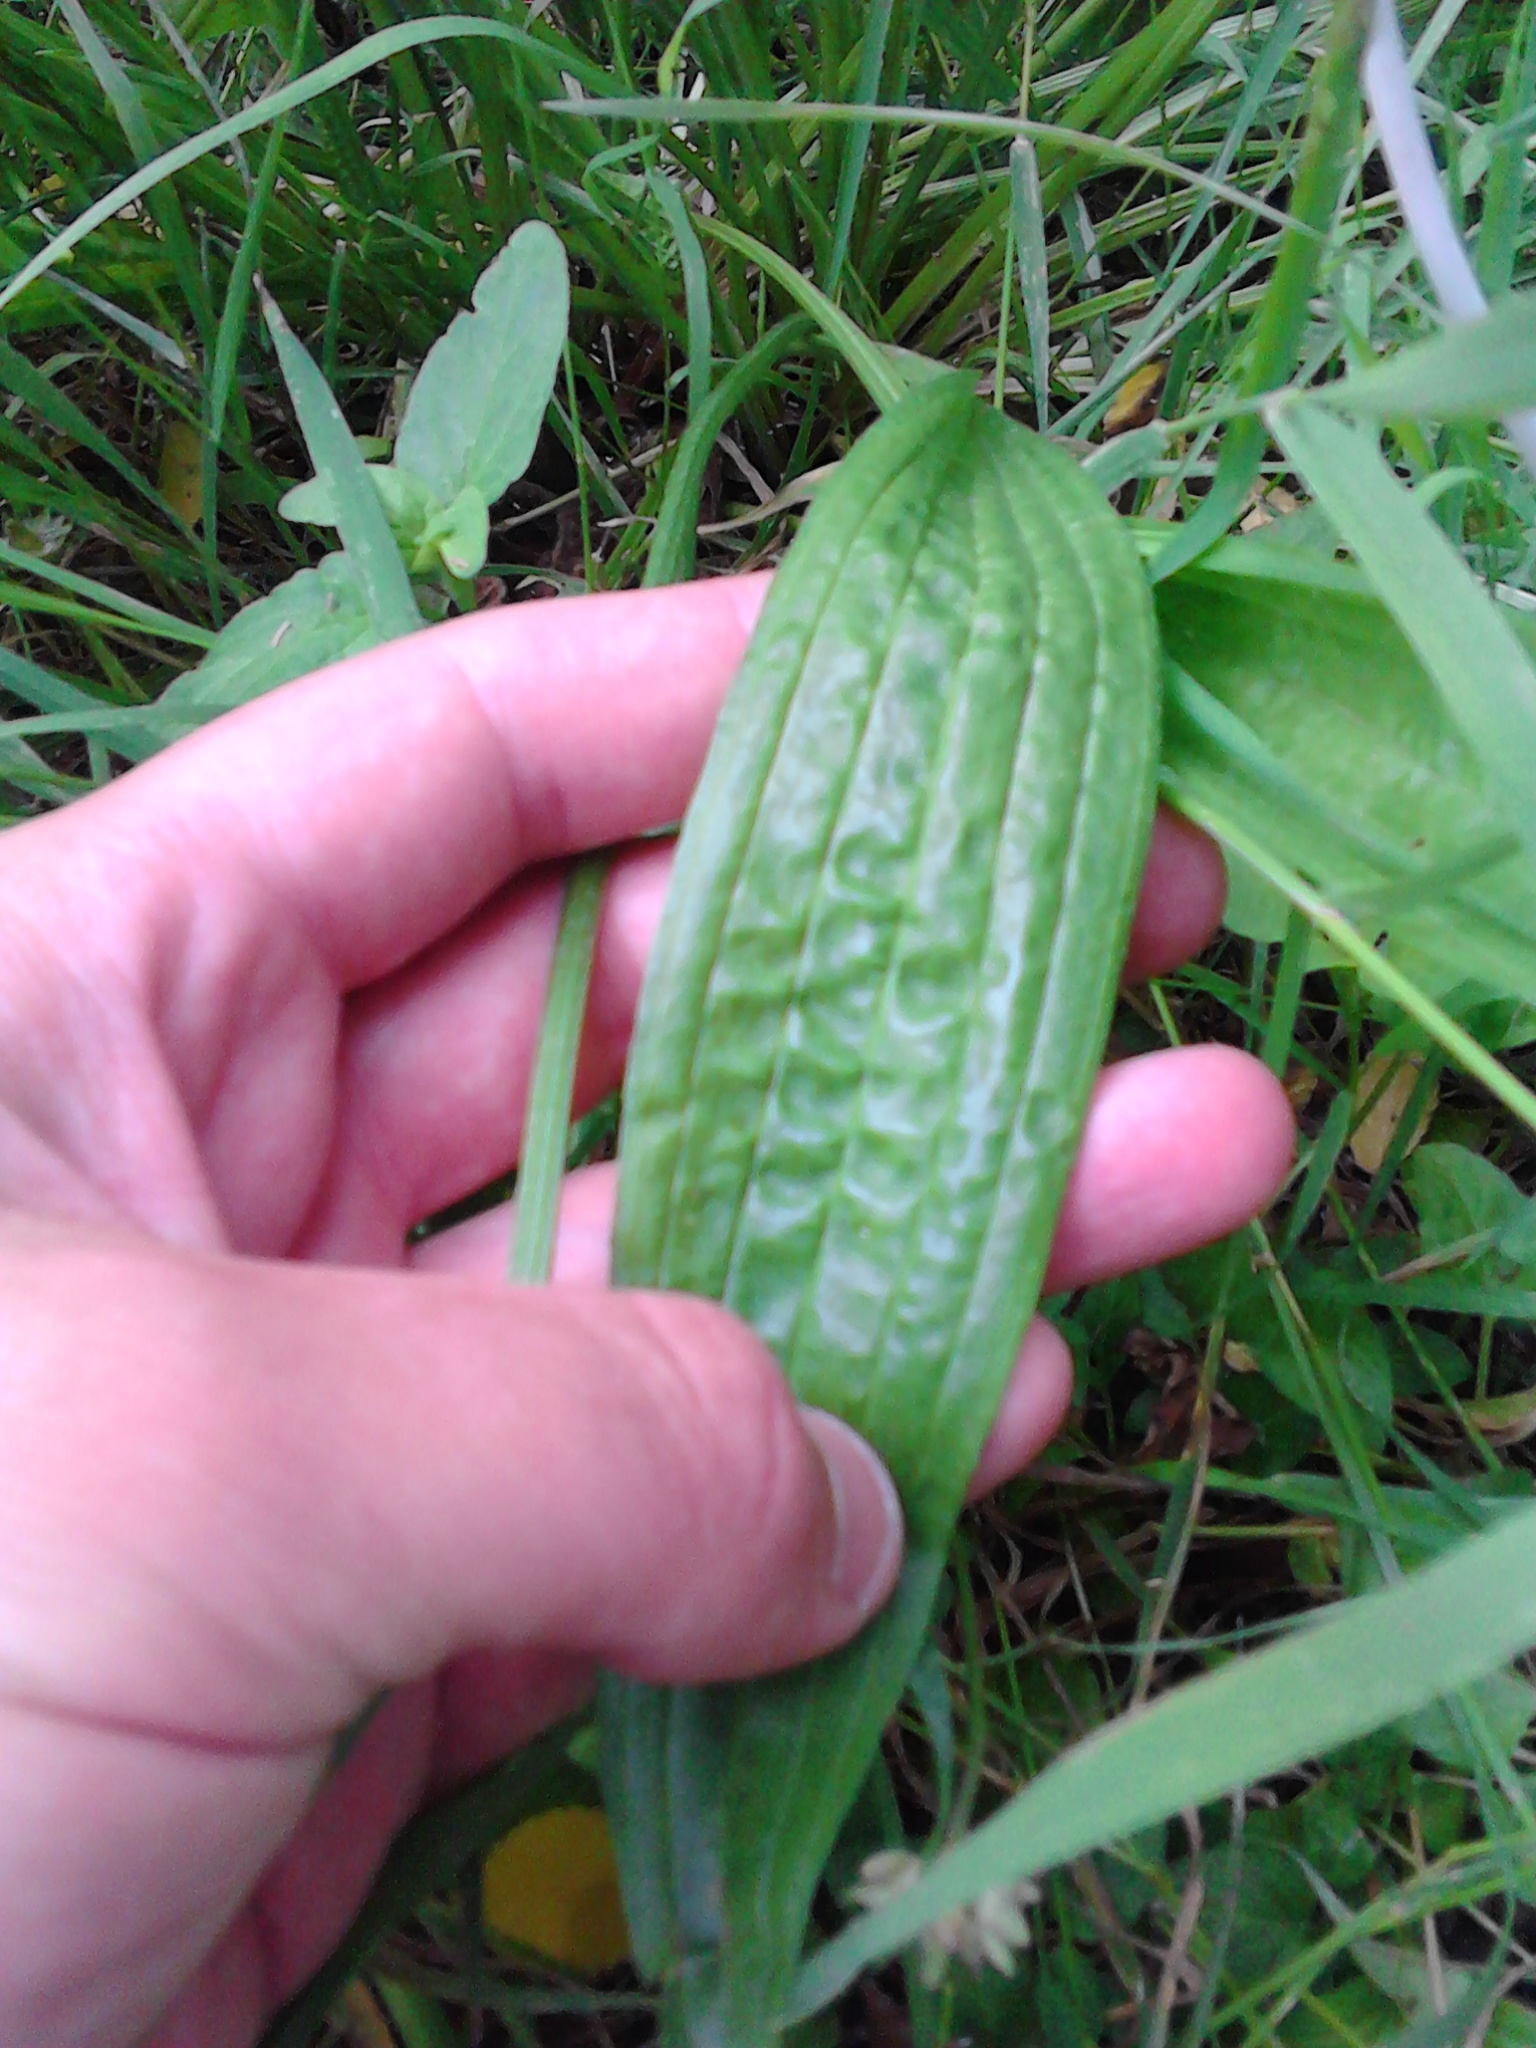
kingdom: Plantae
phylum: Tracheophyta
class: Magnoliopsida
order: Lamiales
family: Plantaginaceae
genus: Plantago
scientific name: Plantago lanceolata
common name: Ribwort plantain
